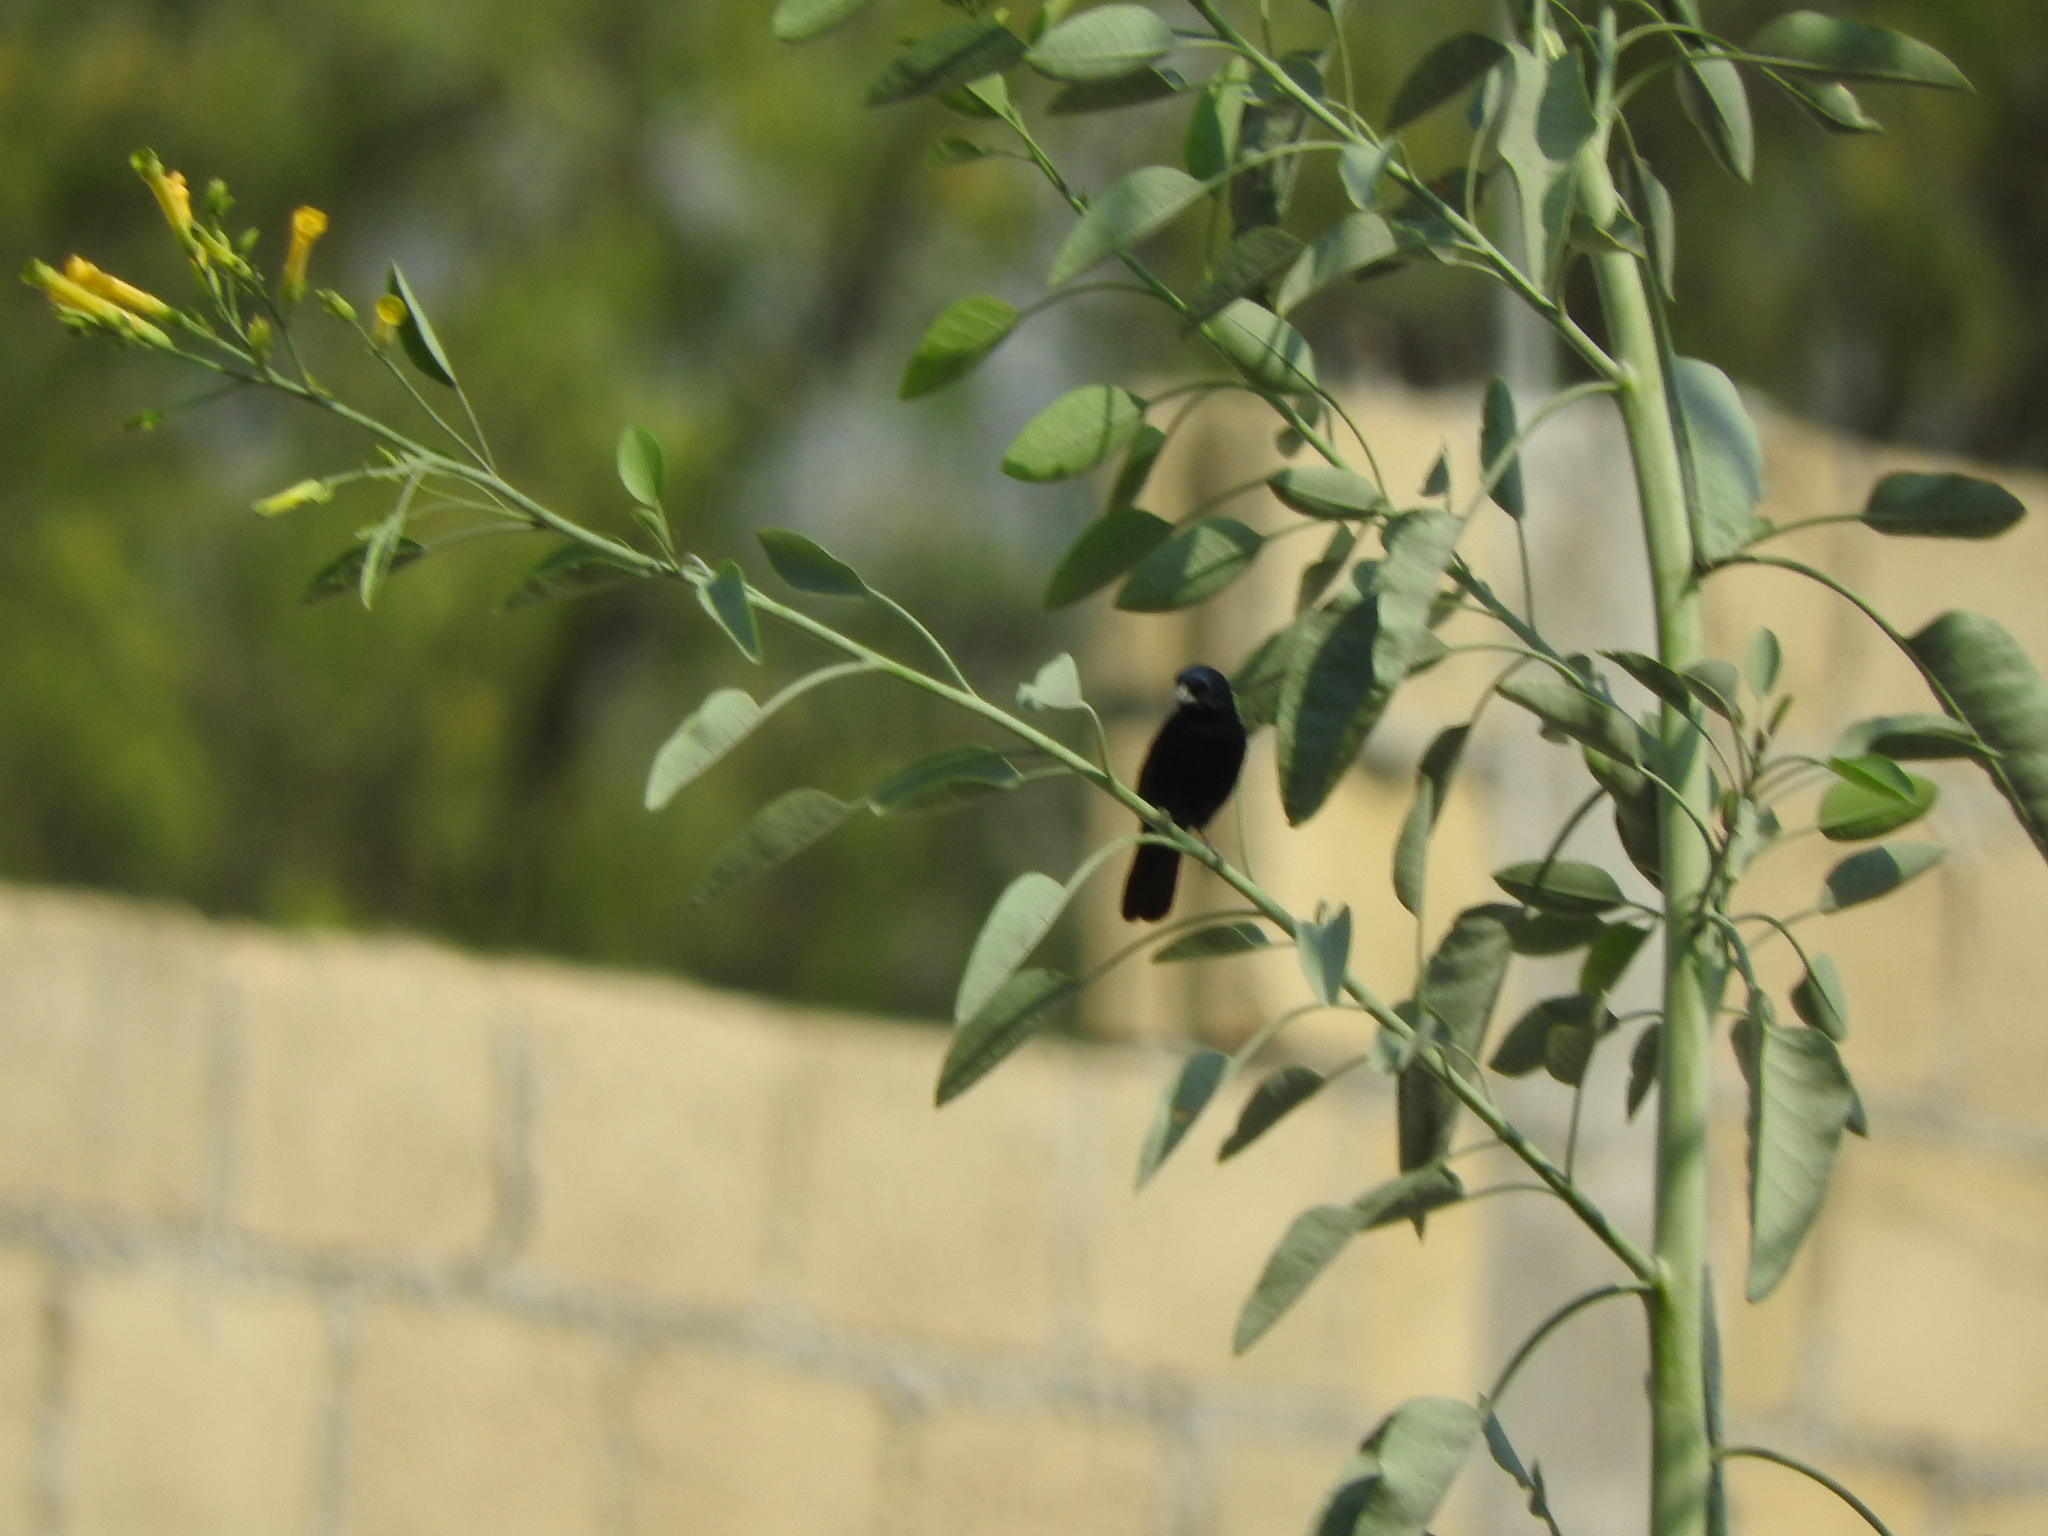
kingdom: Animalia
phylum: Chordata
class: Aves
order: Passeriformes
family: Thraupidae
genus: Volatinia
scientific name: Volatinia jacarina
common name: Blue-black grassquit
